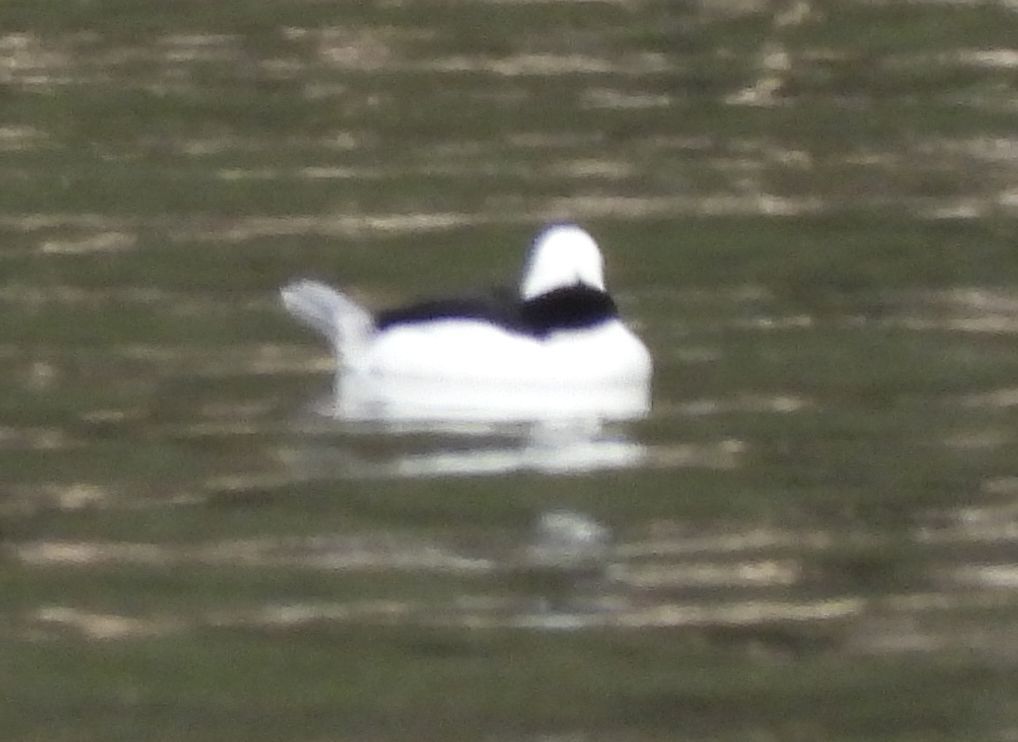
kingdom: Animalia
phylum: Chordata
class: Aves
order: Anseriformes
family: Anatidae
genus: Bucephala
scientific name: Bucephala albeola
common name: Bufflehead
